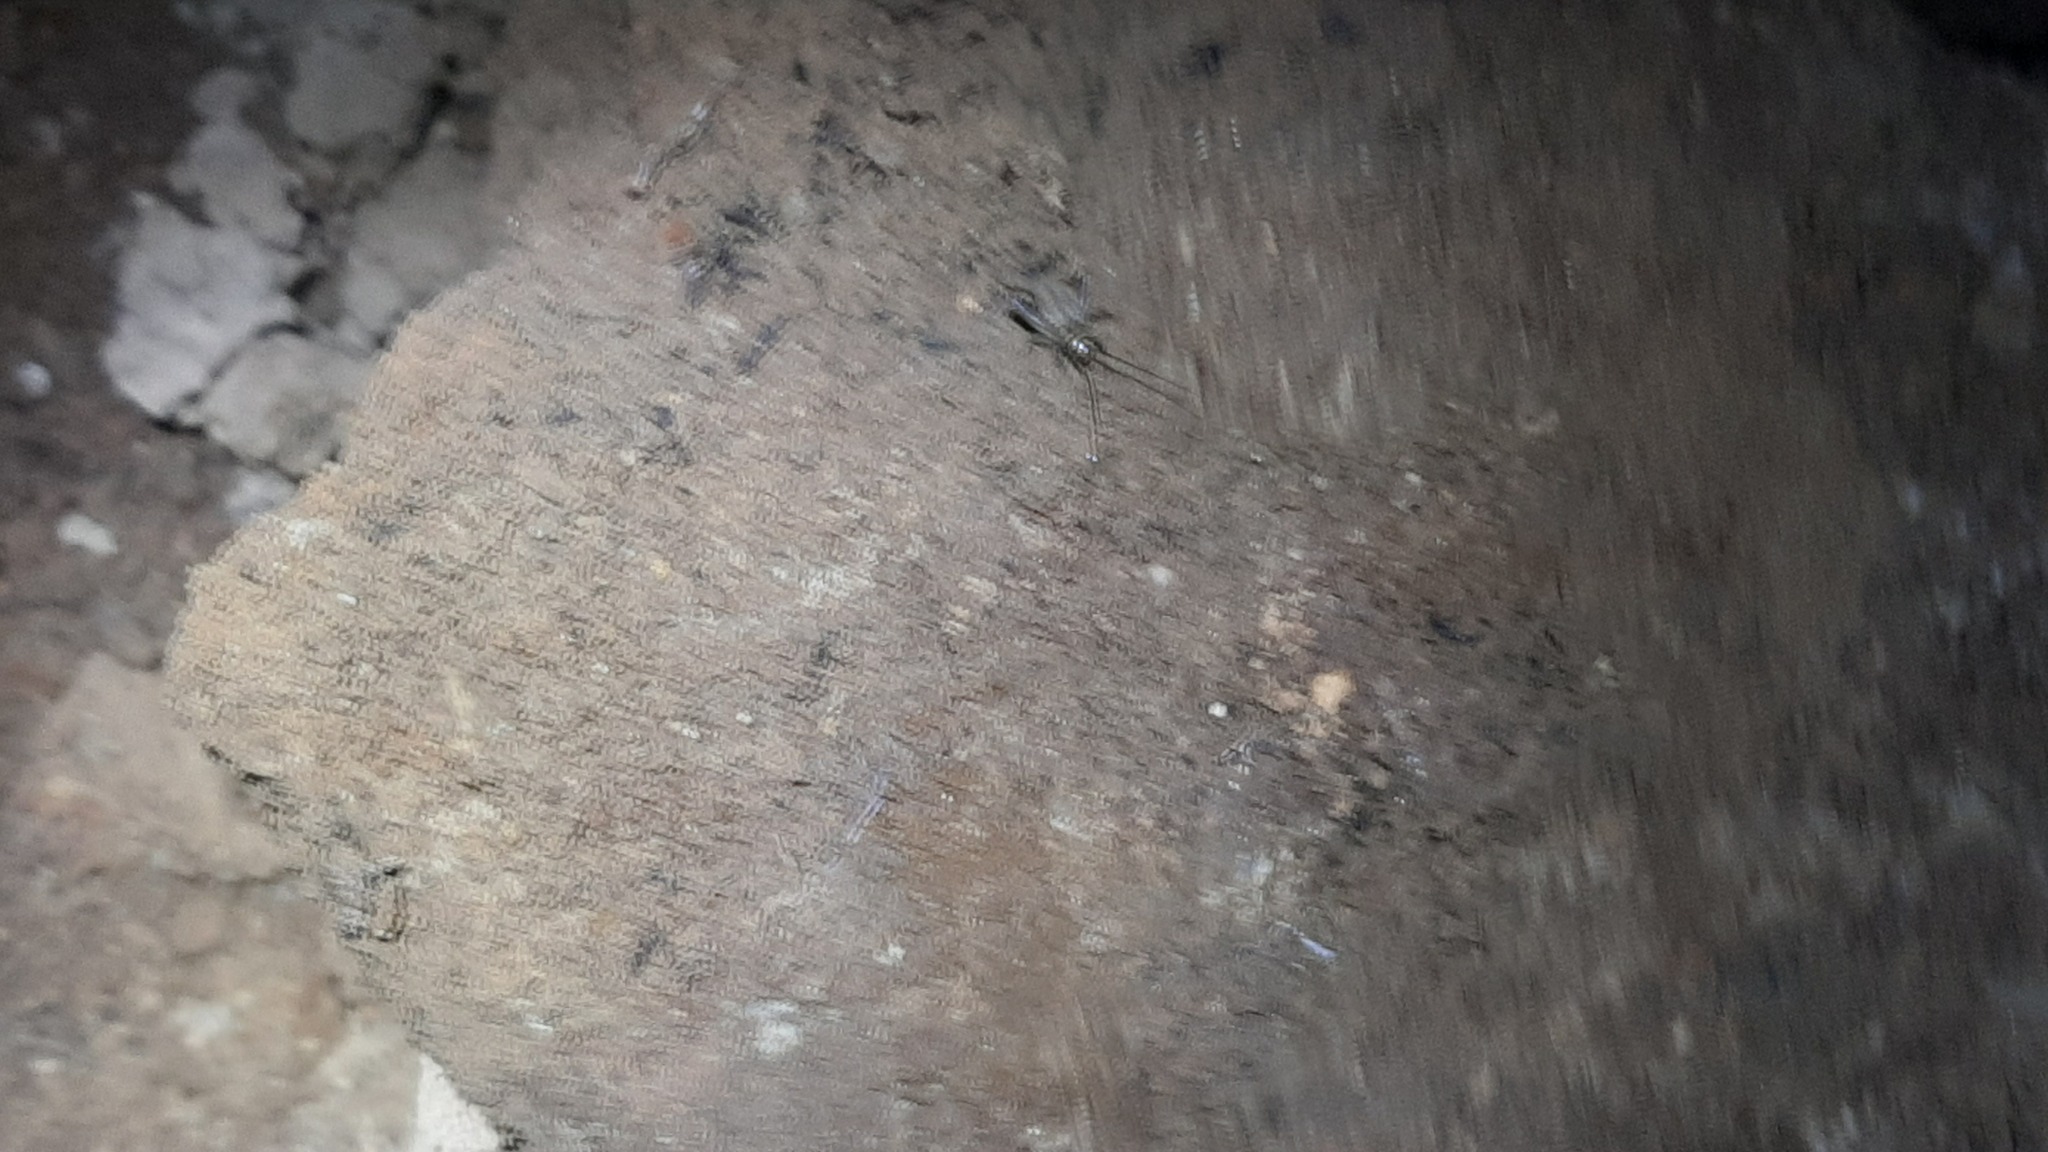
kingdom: Animalia
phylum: Arthropoda
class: Insecta
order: Orthoptera
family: Gryllidae
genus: Eumodicogryllus
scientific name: Eumodicogryllus bordigalensis
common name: Bordeaux cricket
